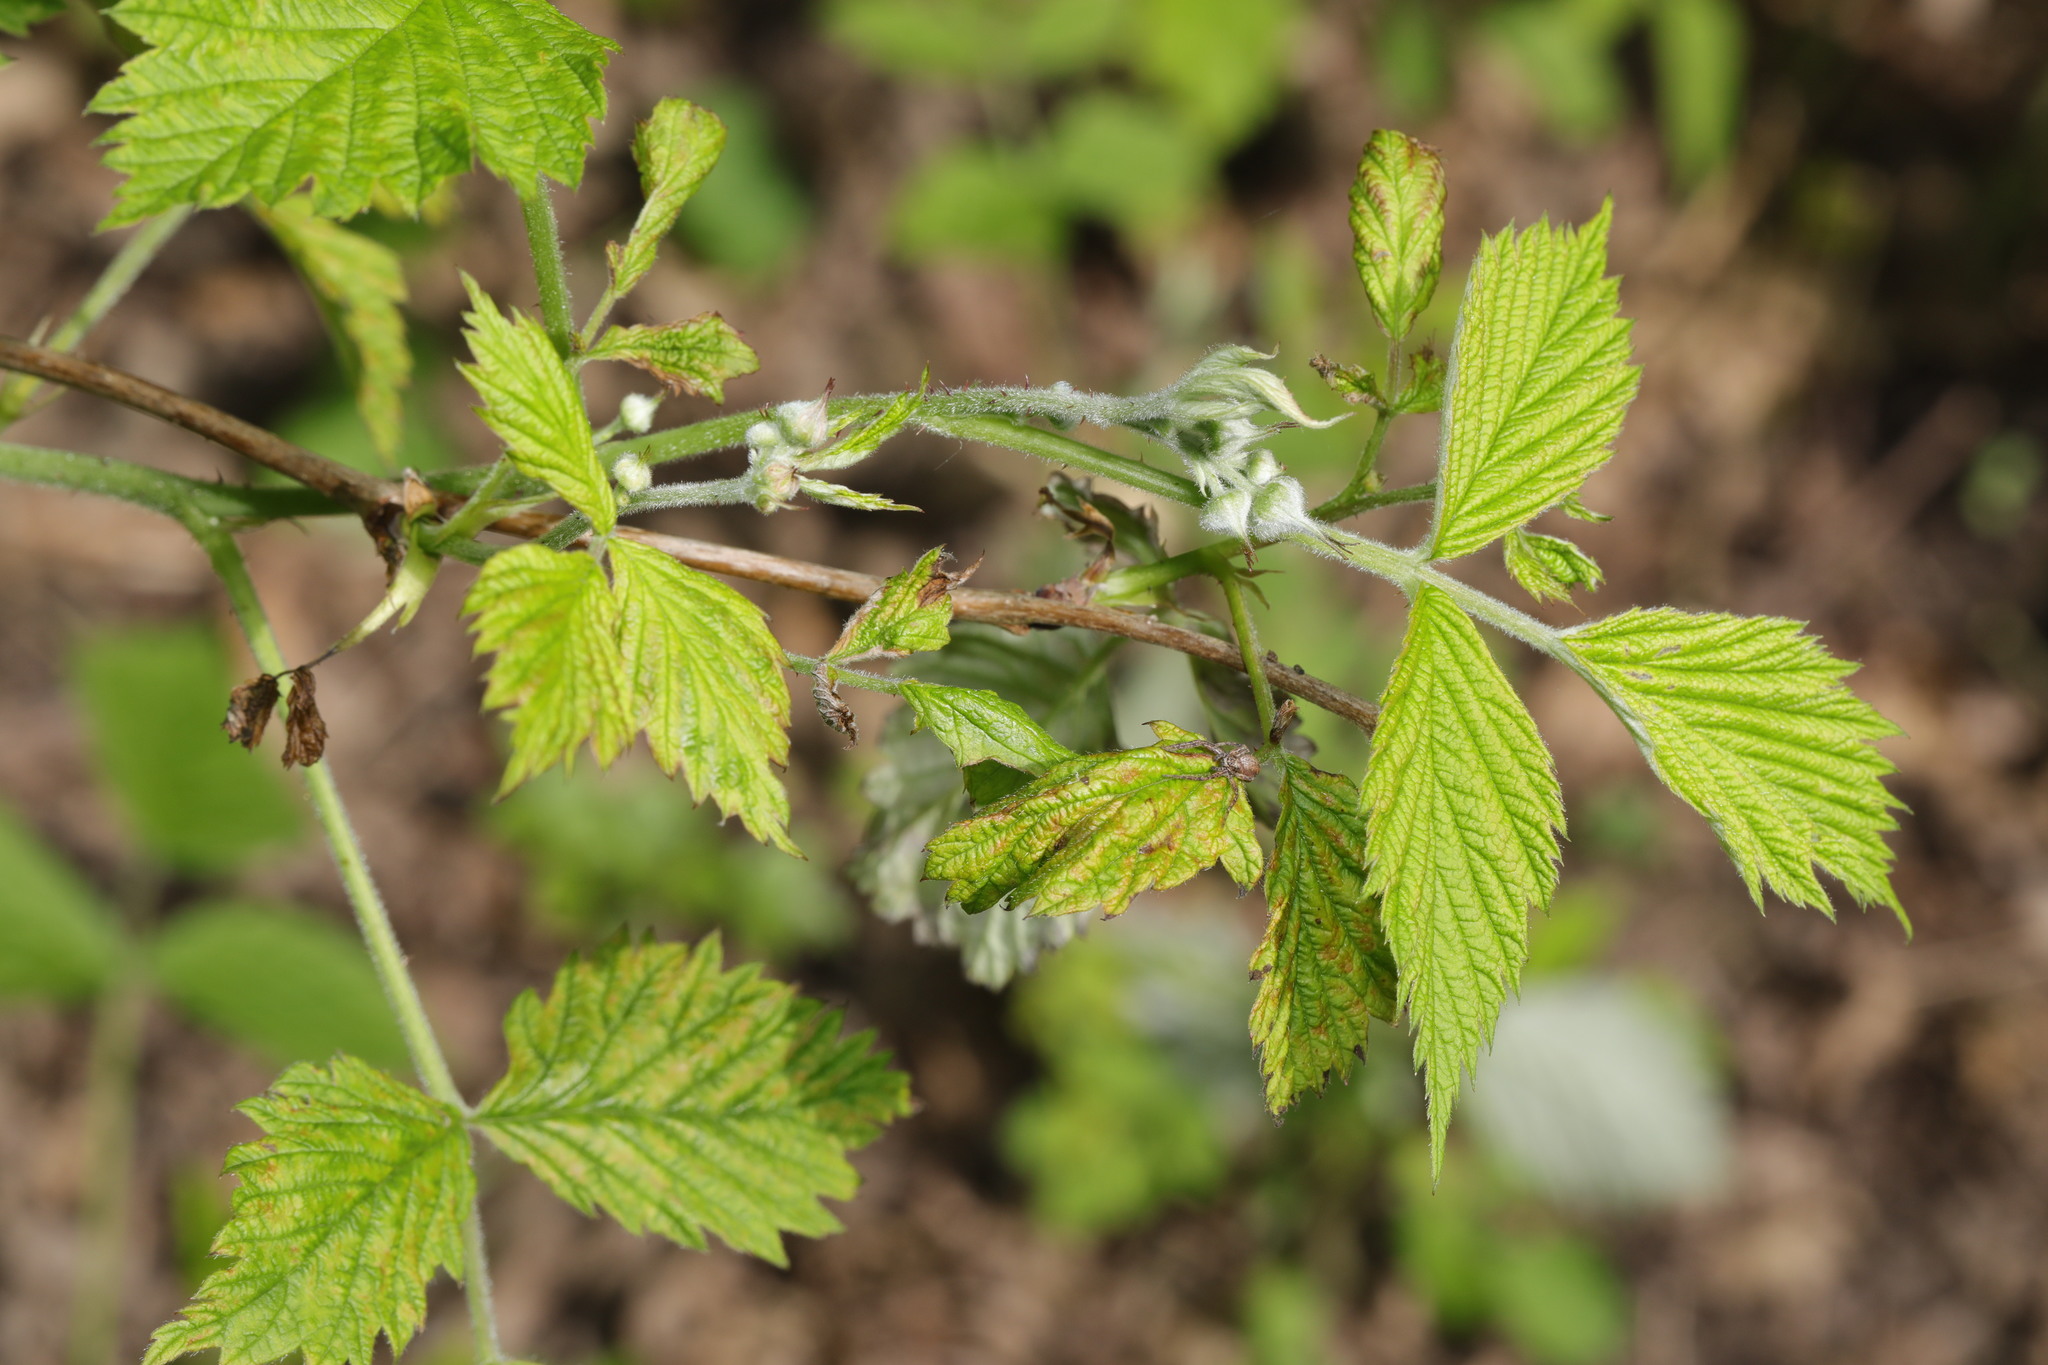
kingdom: Plantae
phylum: Tracheophyta
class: Magnoliopsida
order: Rosales
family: Rosaceae
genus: Rubus
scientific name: Rubus idaeus
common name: Raspberry
